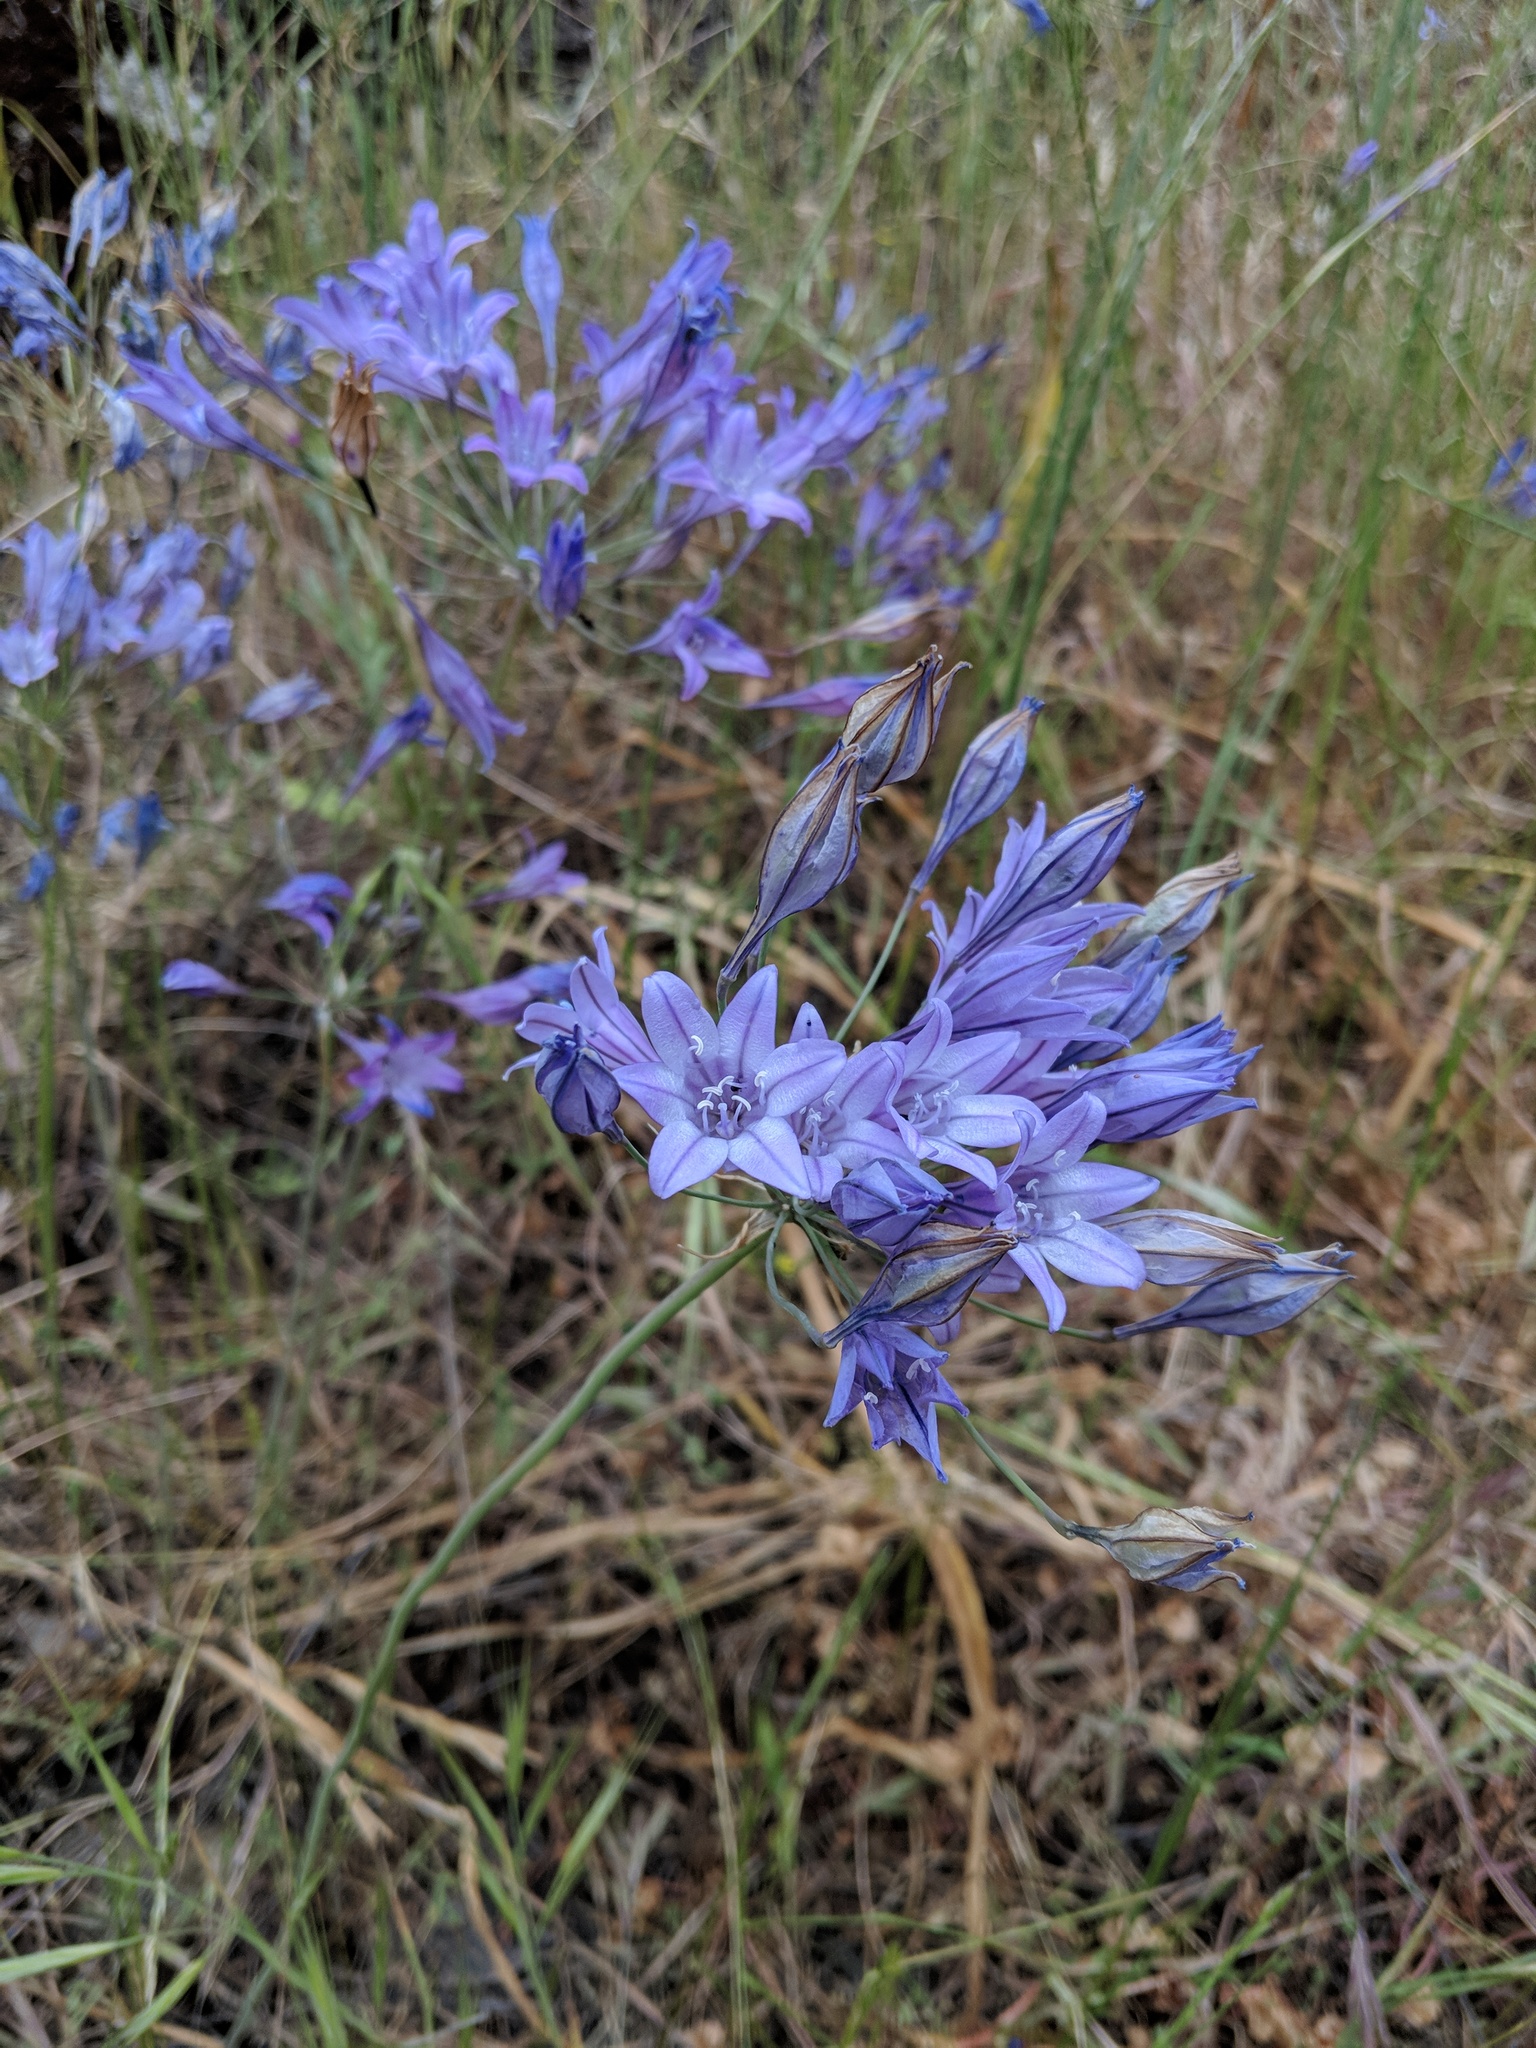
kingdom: Plantae
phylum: Tracheophyta
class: Liliopsida
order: Asparagales
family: Asparagaceae
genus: Triteleia
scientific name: Triteleia laxa
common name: Triplet-lily
